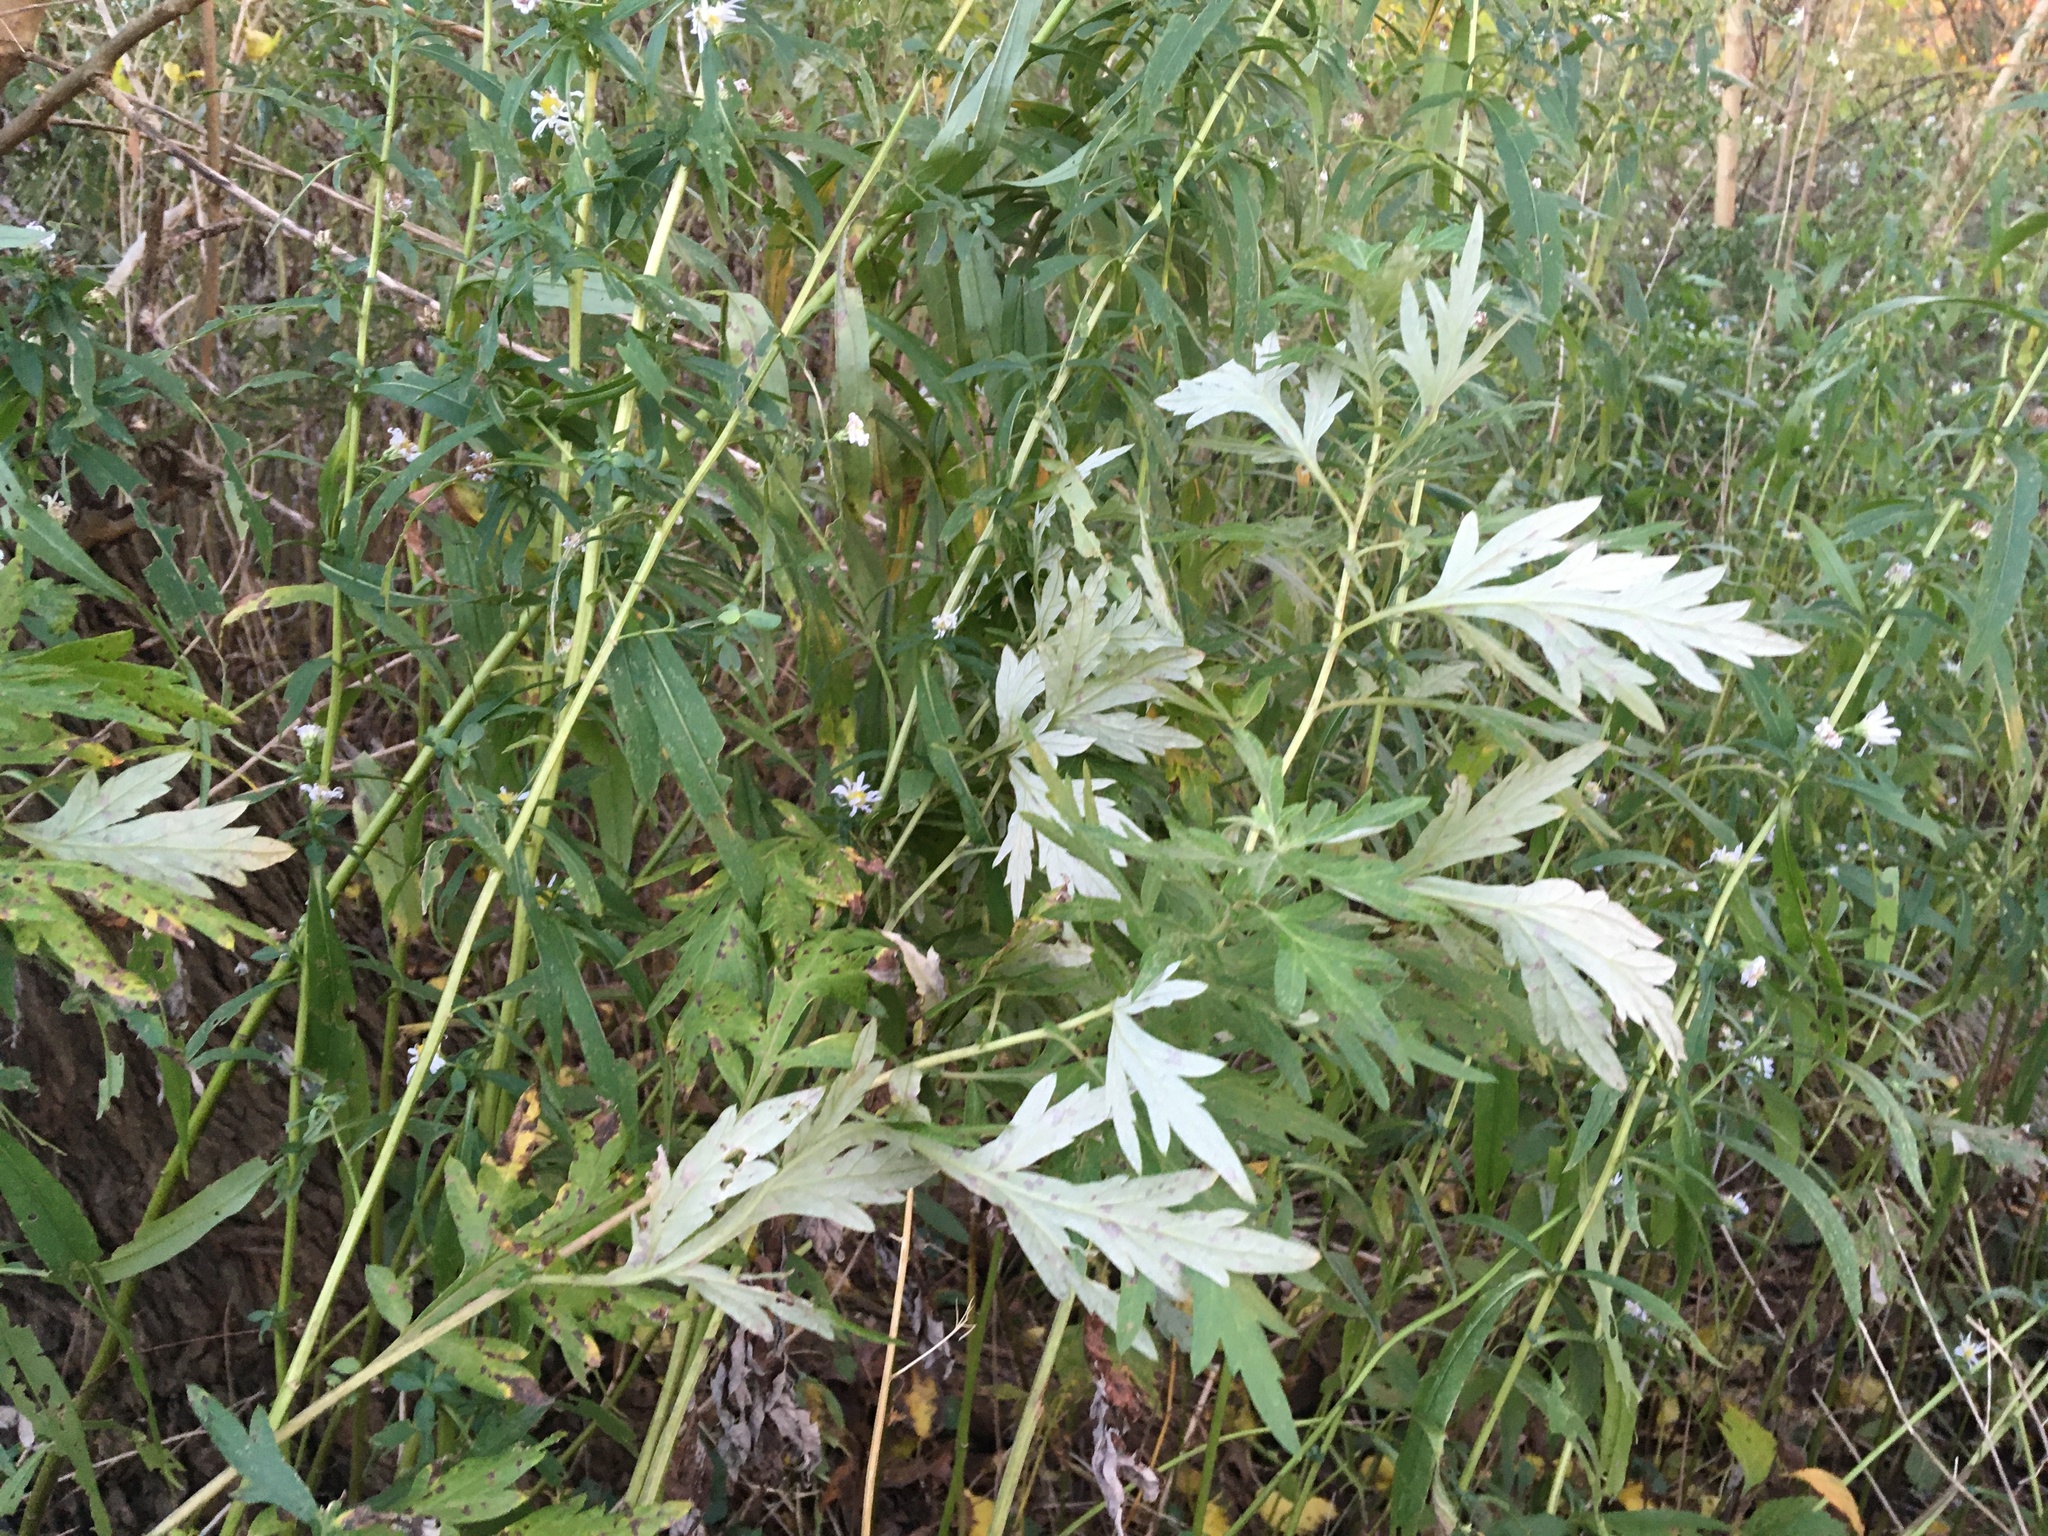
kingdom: Plantae
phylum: Tracheophyta
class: Magnoliopsida
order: Asterales
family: Asteraceae
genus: Artemisia
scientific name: Artemisia vulgaris
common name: Mugwort
